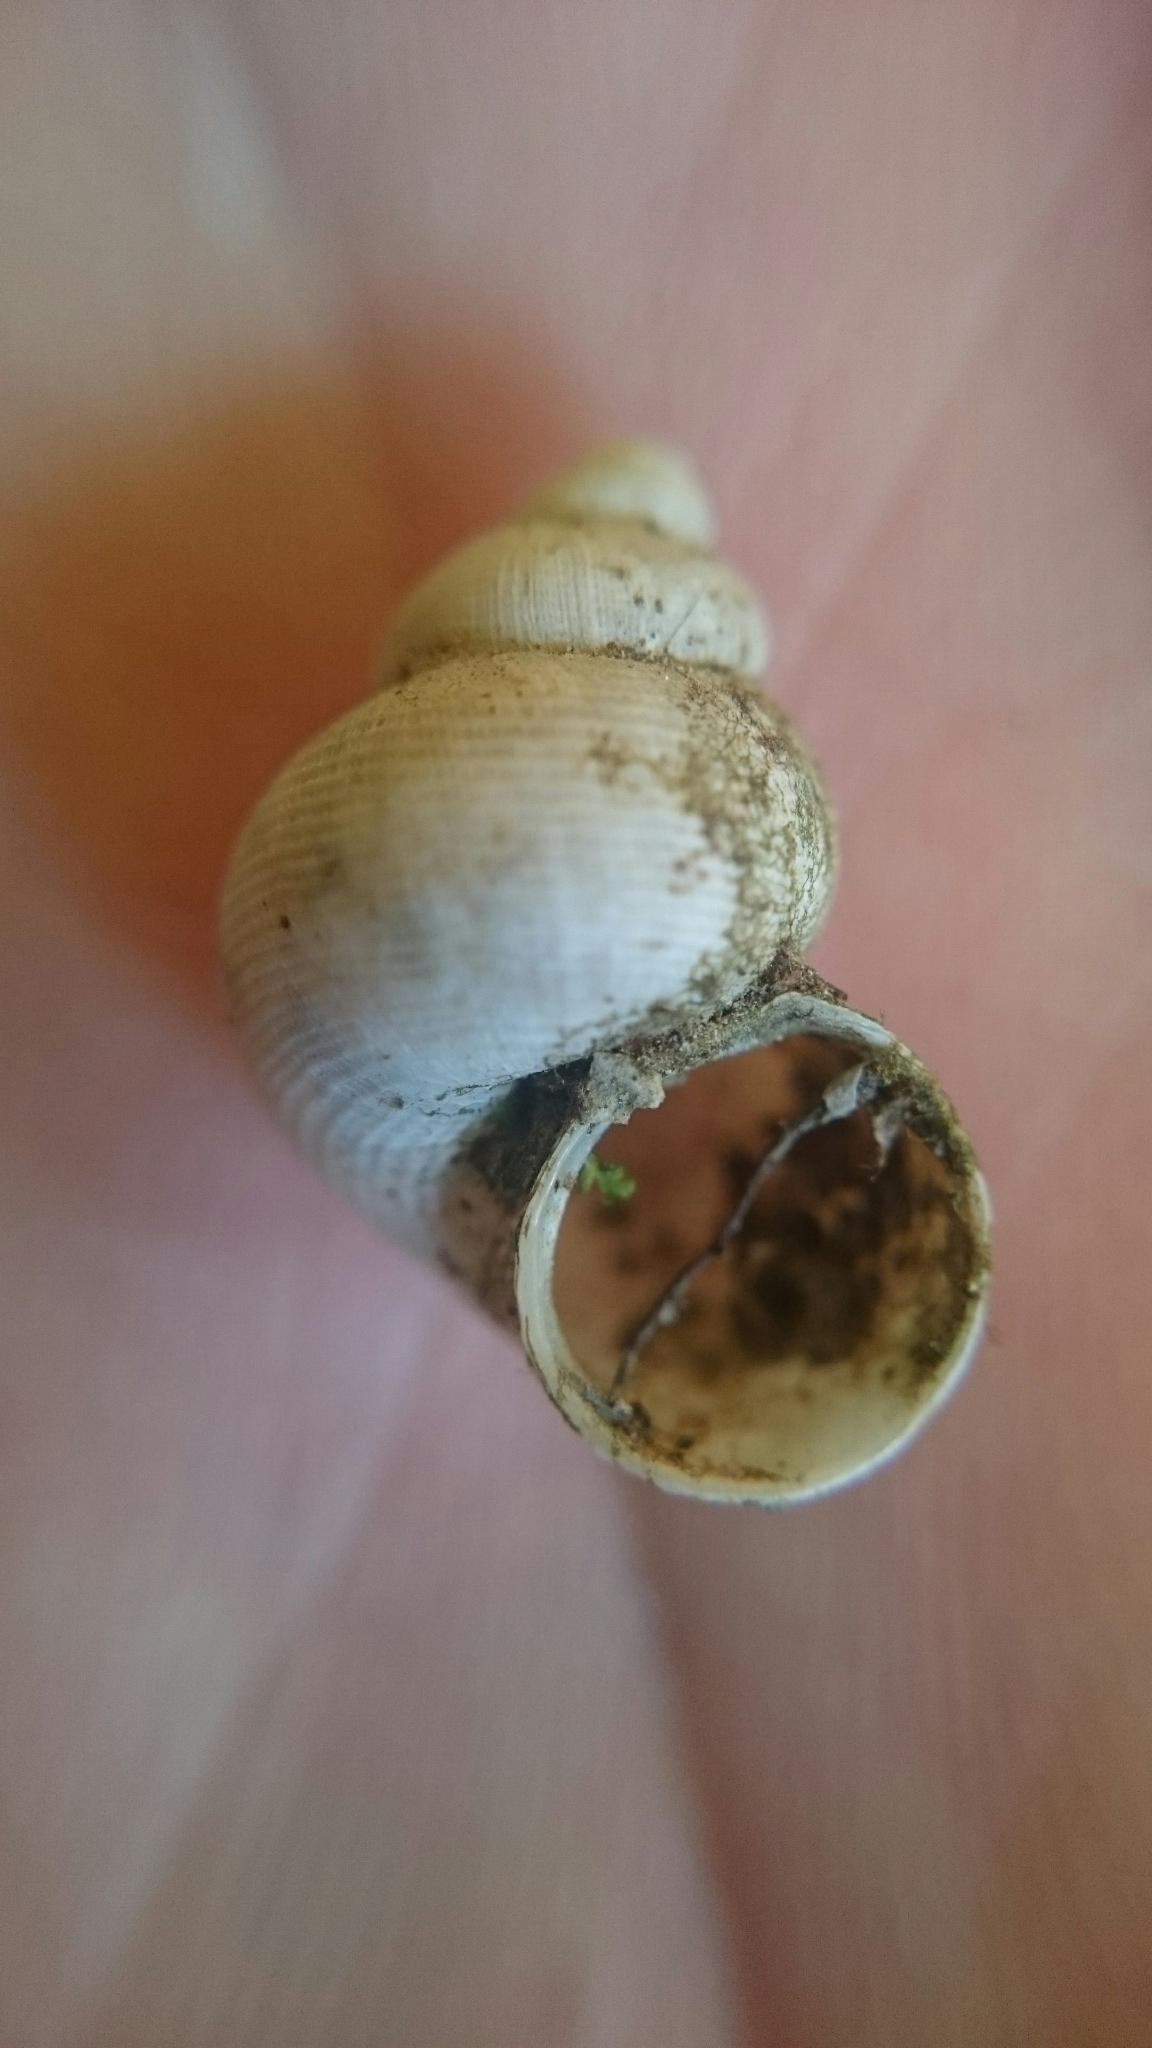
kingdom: Animalia
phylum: Mollusca
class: Gastropoda
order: Littorinimorpha
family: Pomatiidae
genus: Pomatias
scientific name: Pomatias elegans
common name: Red-mouthed snail
